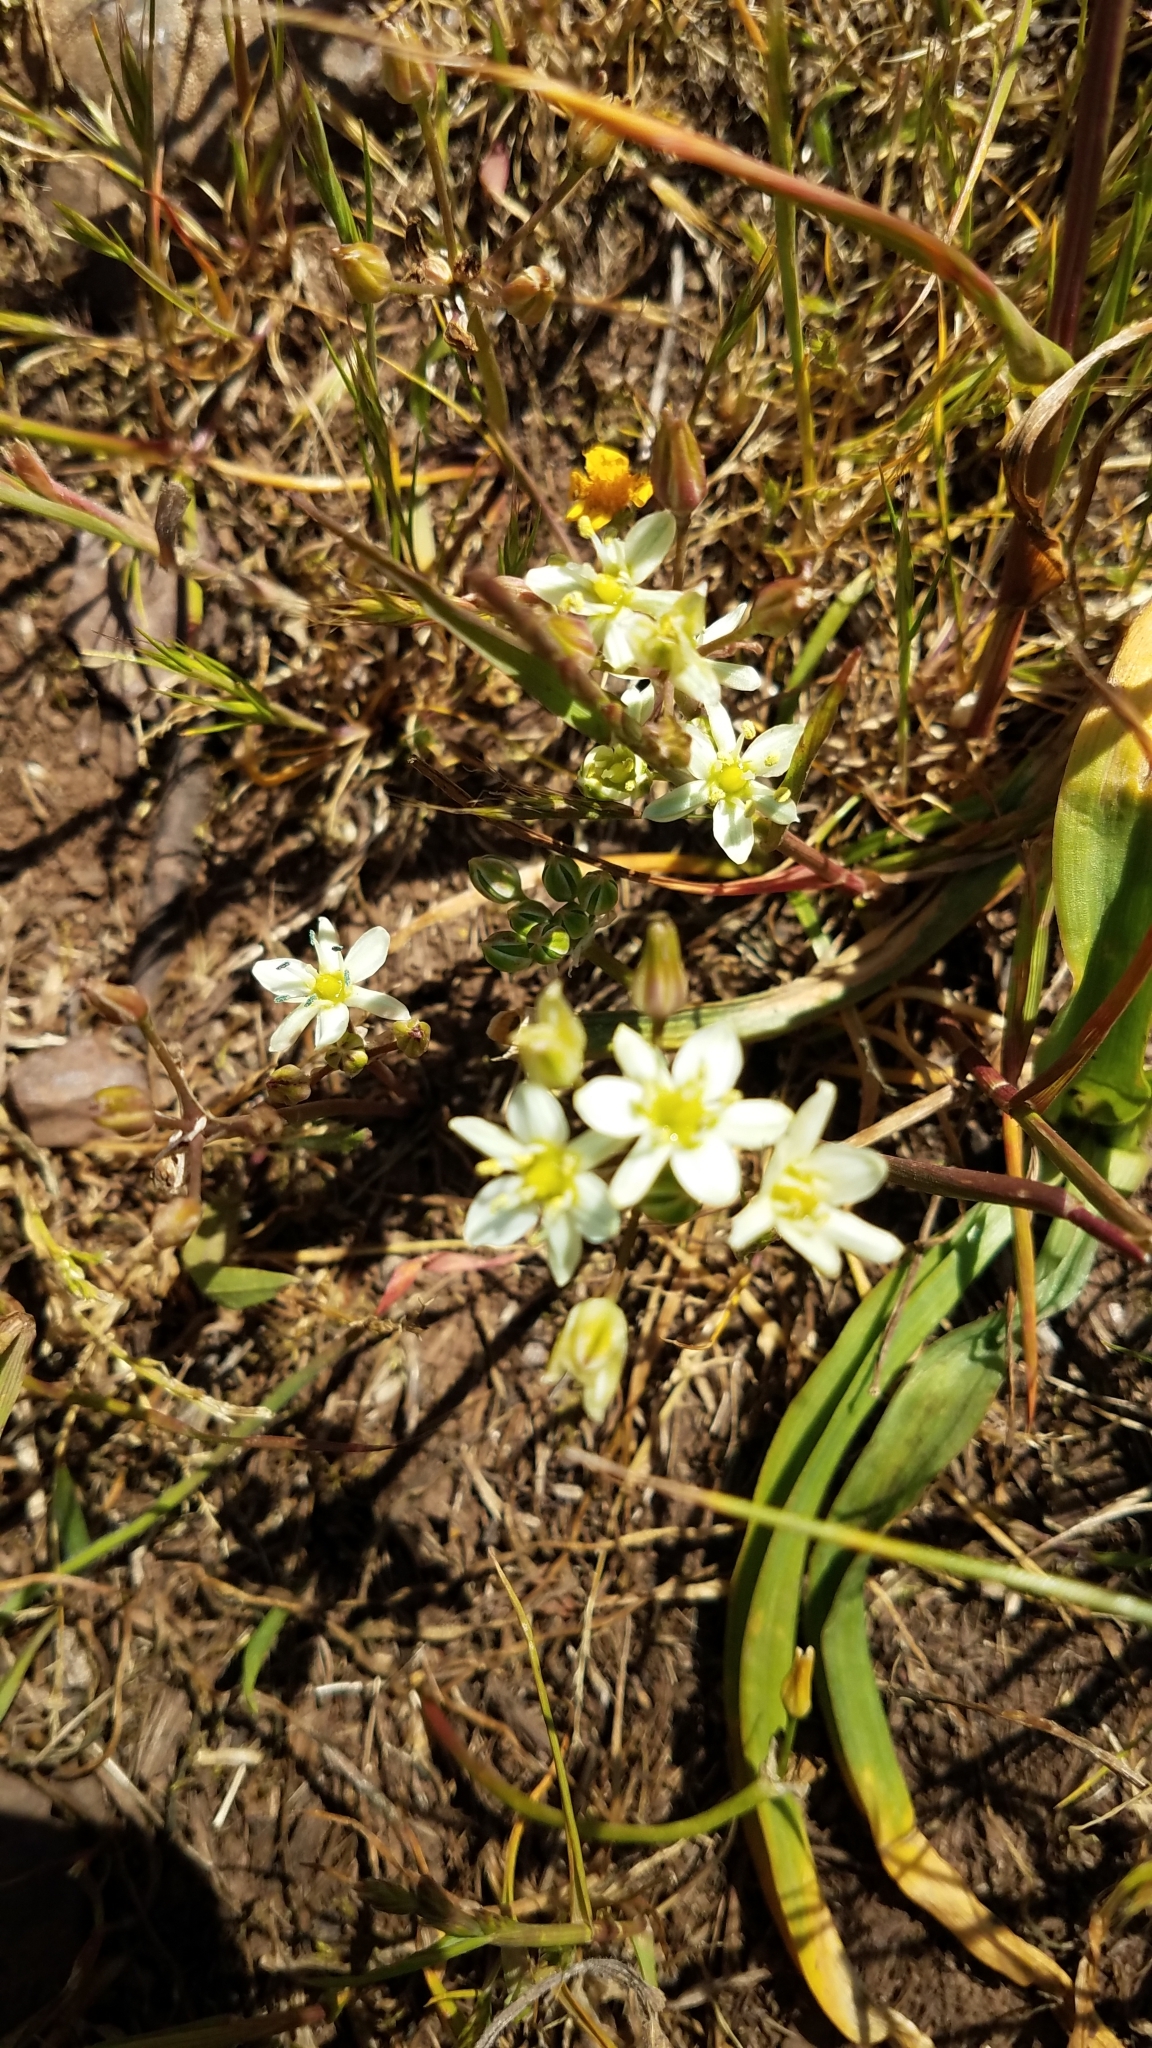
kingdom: Plantae
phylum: Tracheophyta
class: Liliopsida
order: Liliales
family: Melanthiaceae
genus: Toxicoscordion
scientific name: Toxicoscordion fremontii
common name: Fremont's death camas
